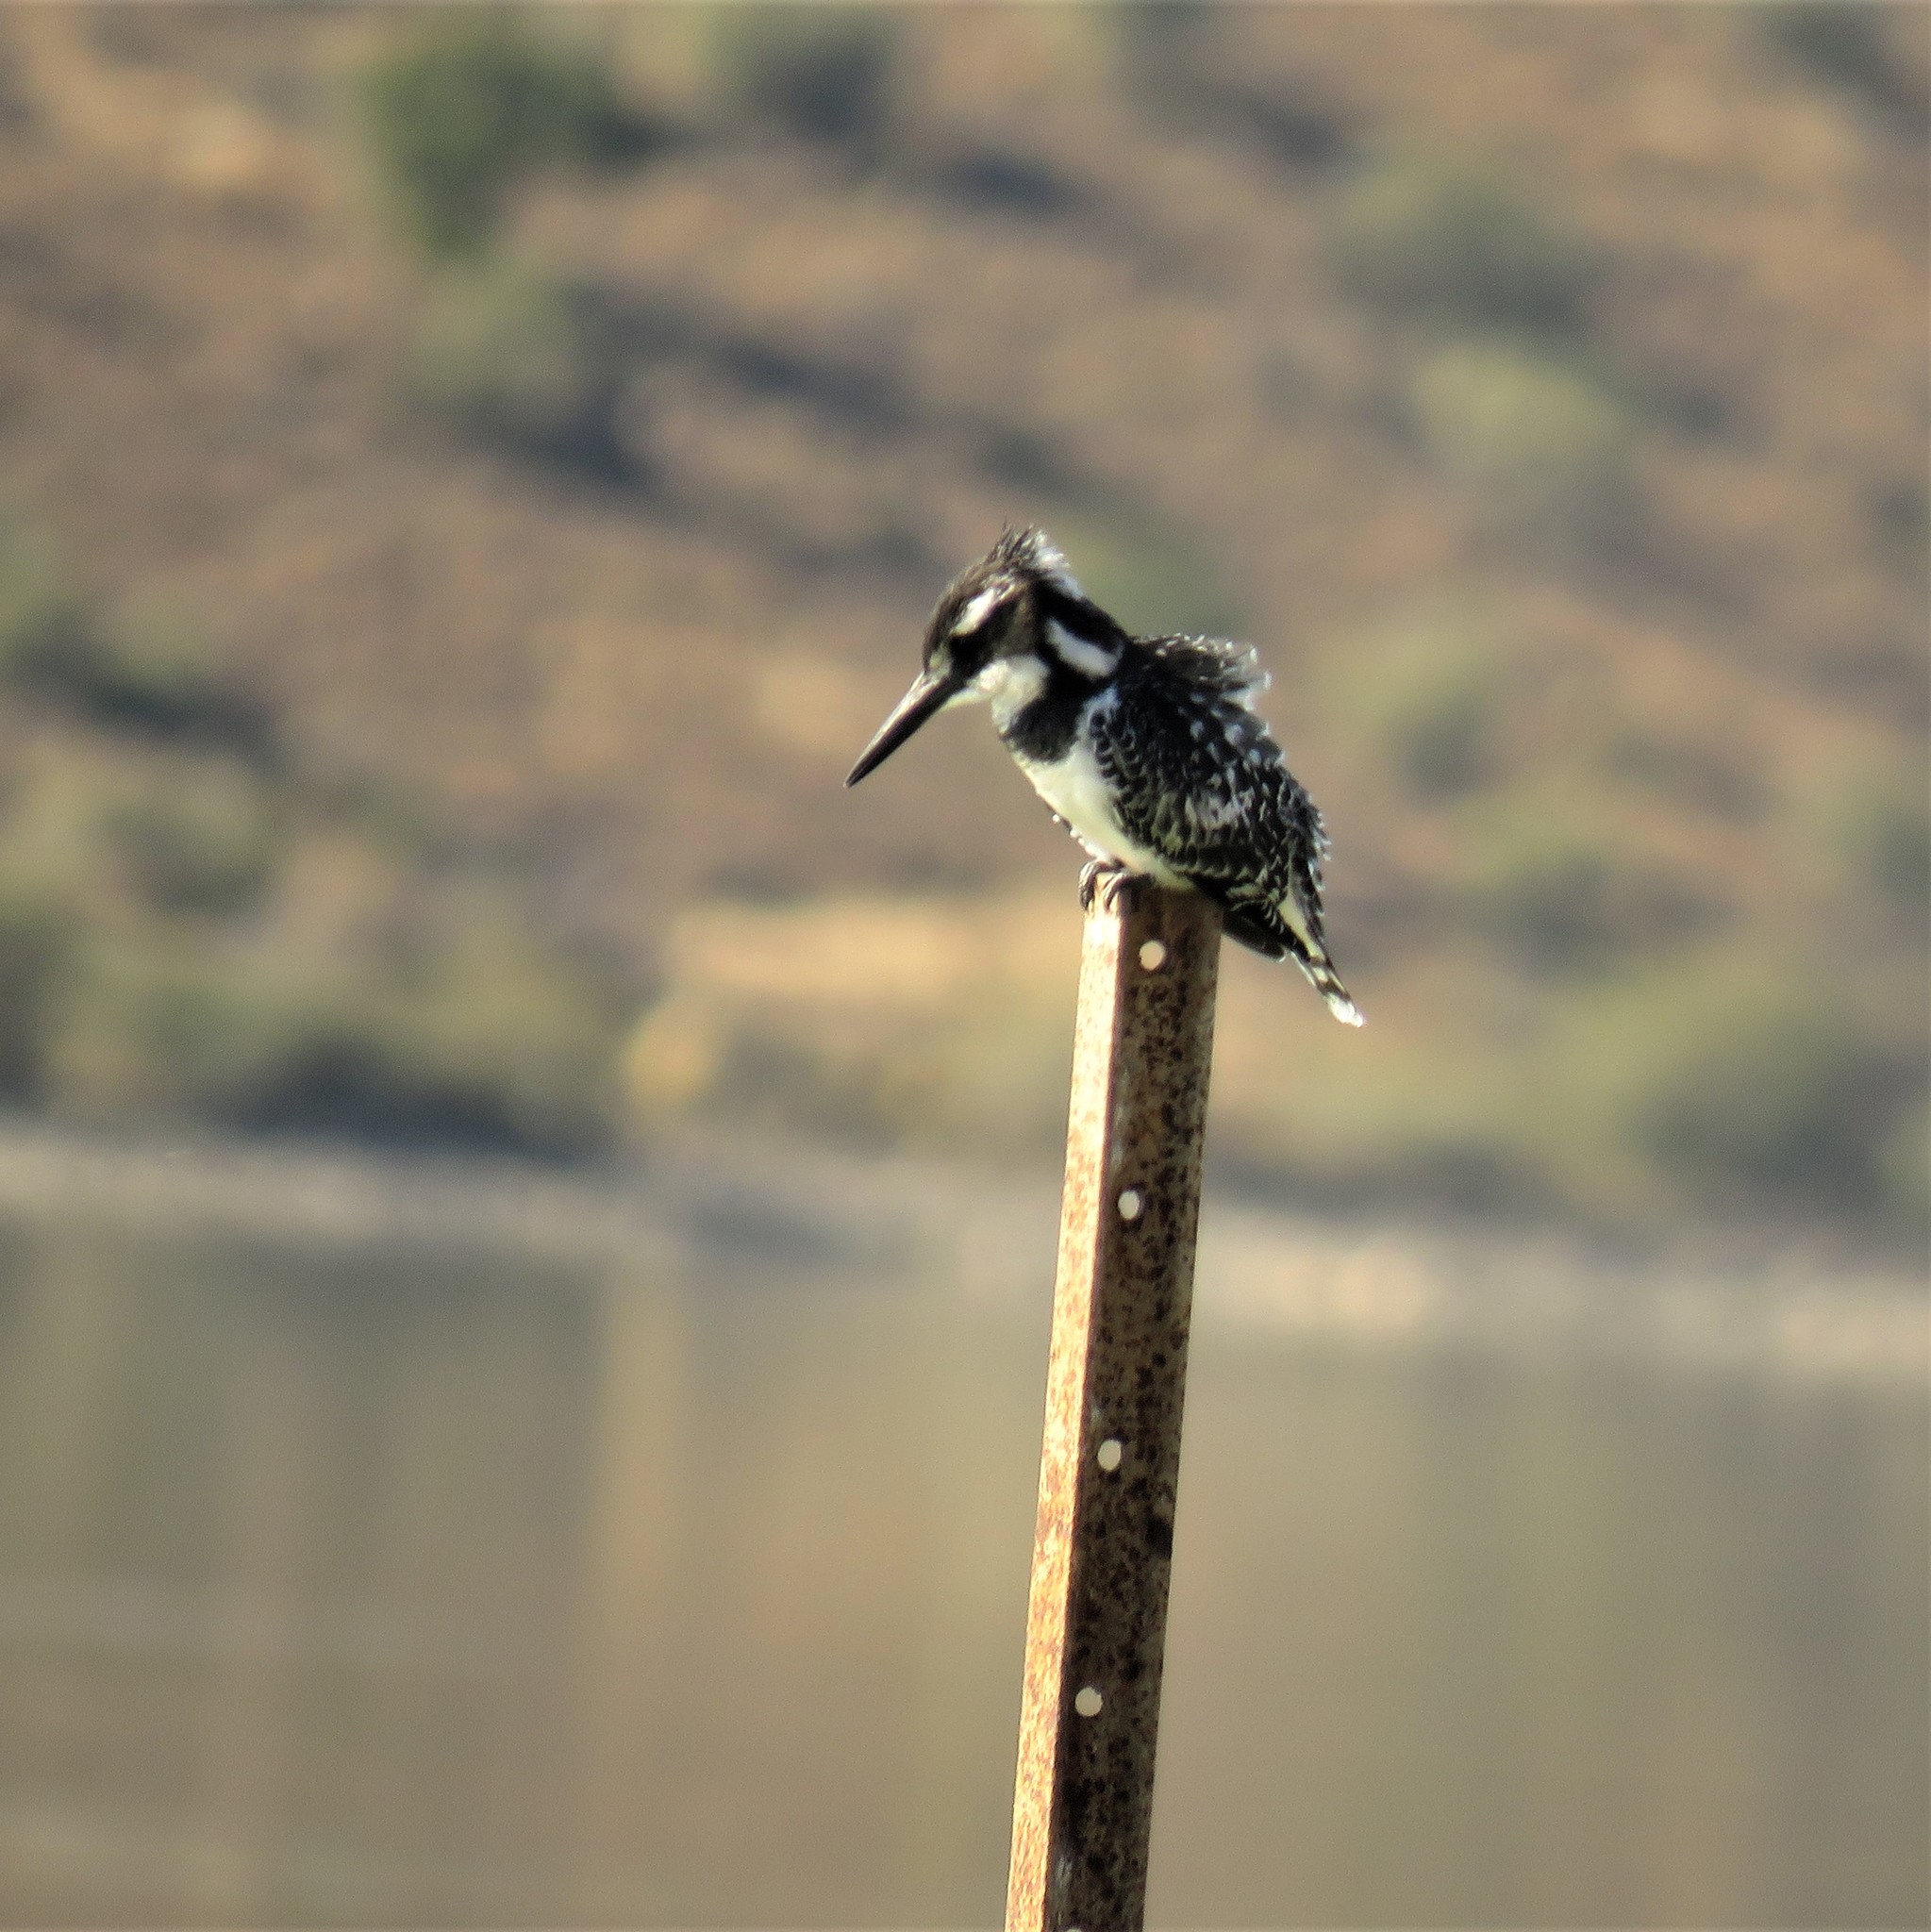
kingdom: Animalia
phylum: Chordata
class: Aves
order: Coraciiformes
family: Alcedinidae
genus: Ceryle
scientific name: Ceryle rudis
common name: Pied kingfisher
